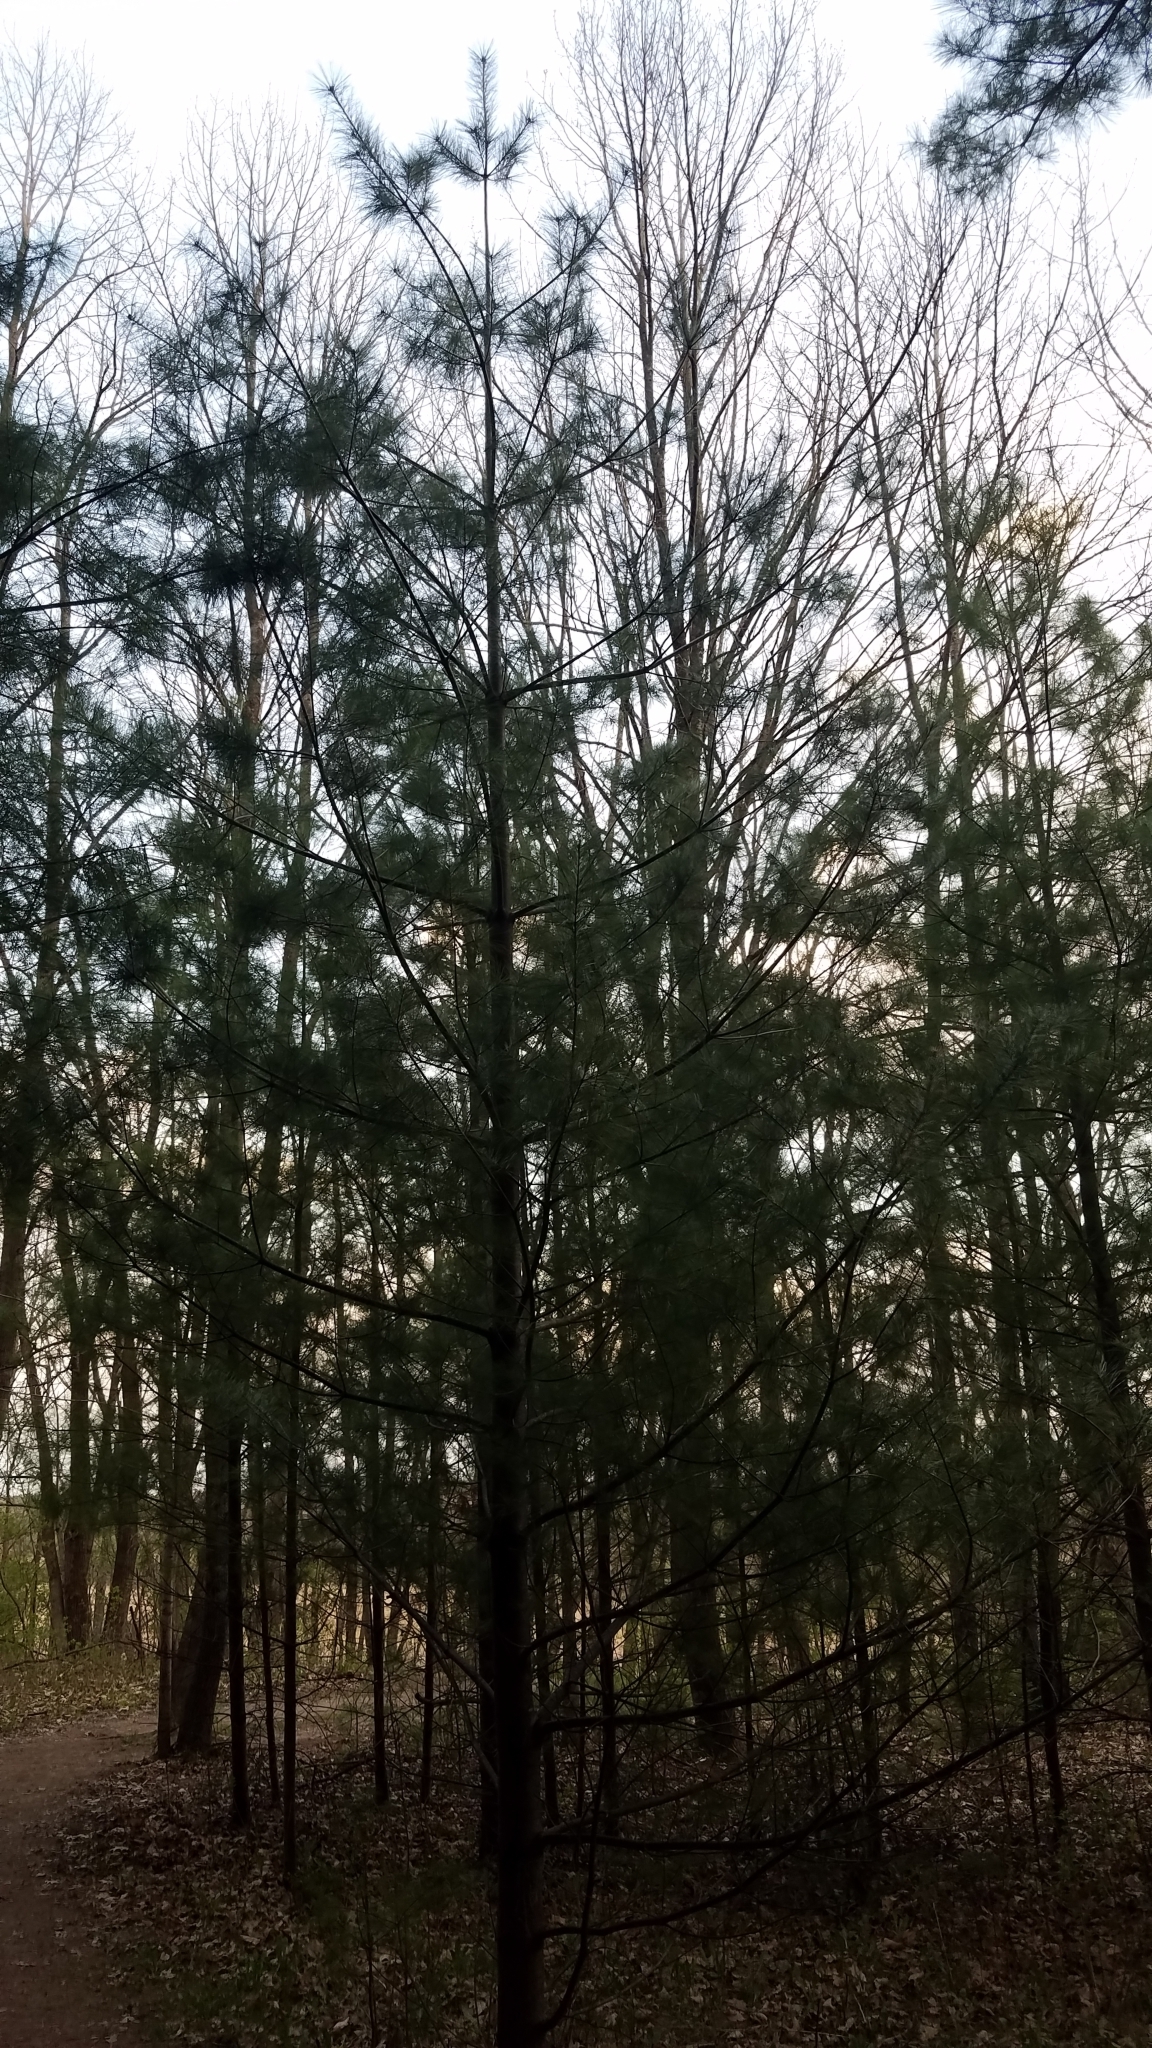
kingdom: Plantae
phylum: Tracheophyta
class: Pinopsida
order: Pinales
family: Pinaceae
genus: Pinus
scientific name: Pinus strobus
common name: Weymouth pine
